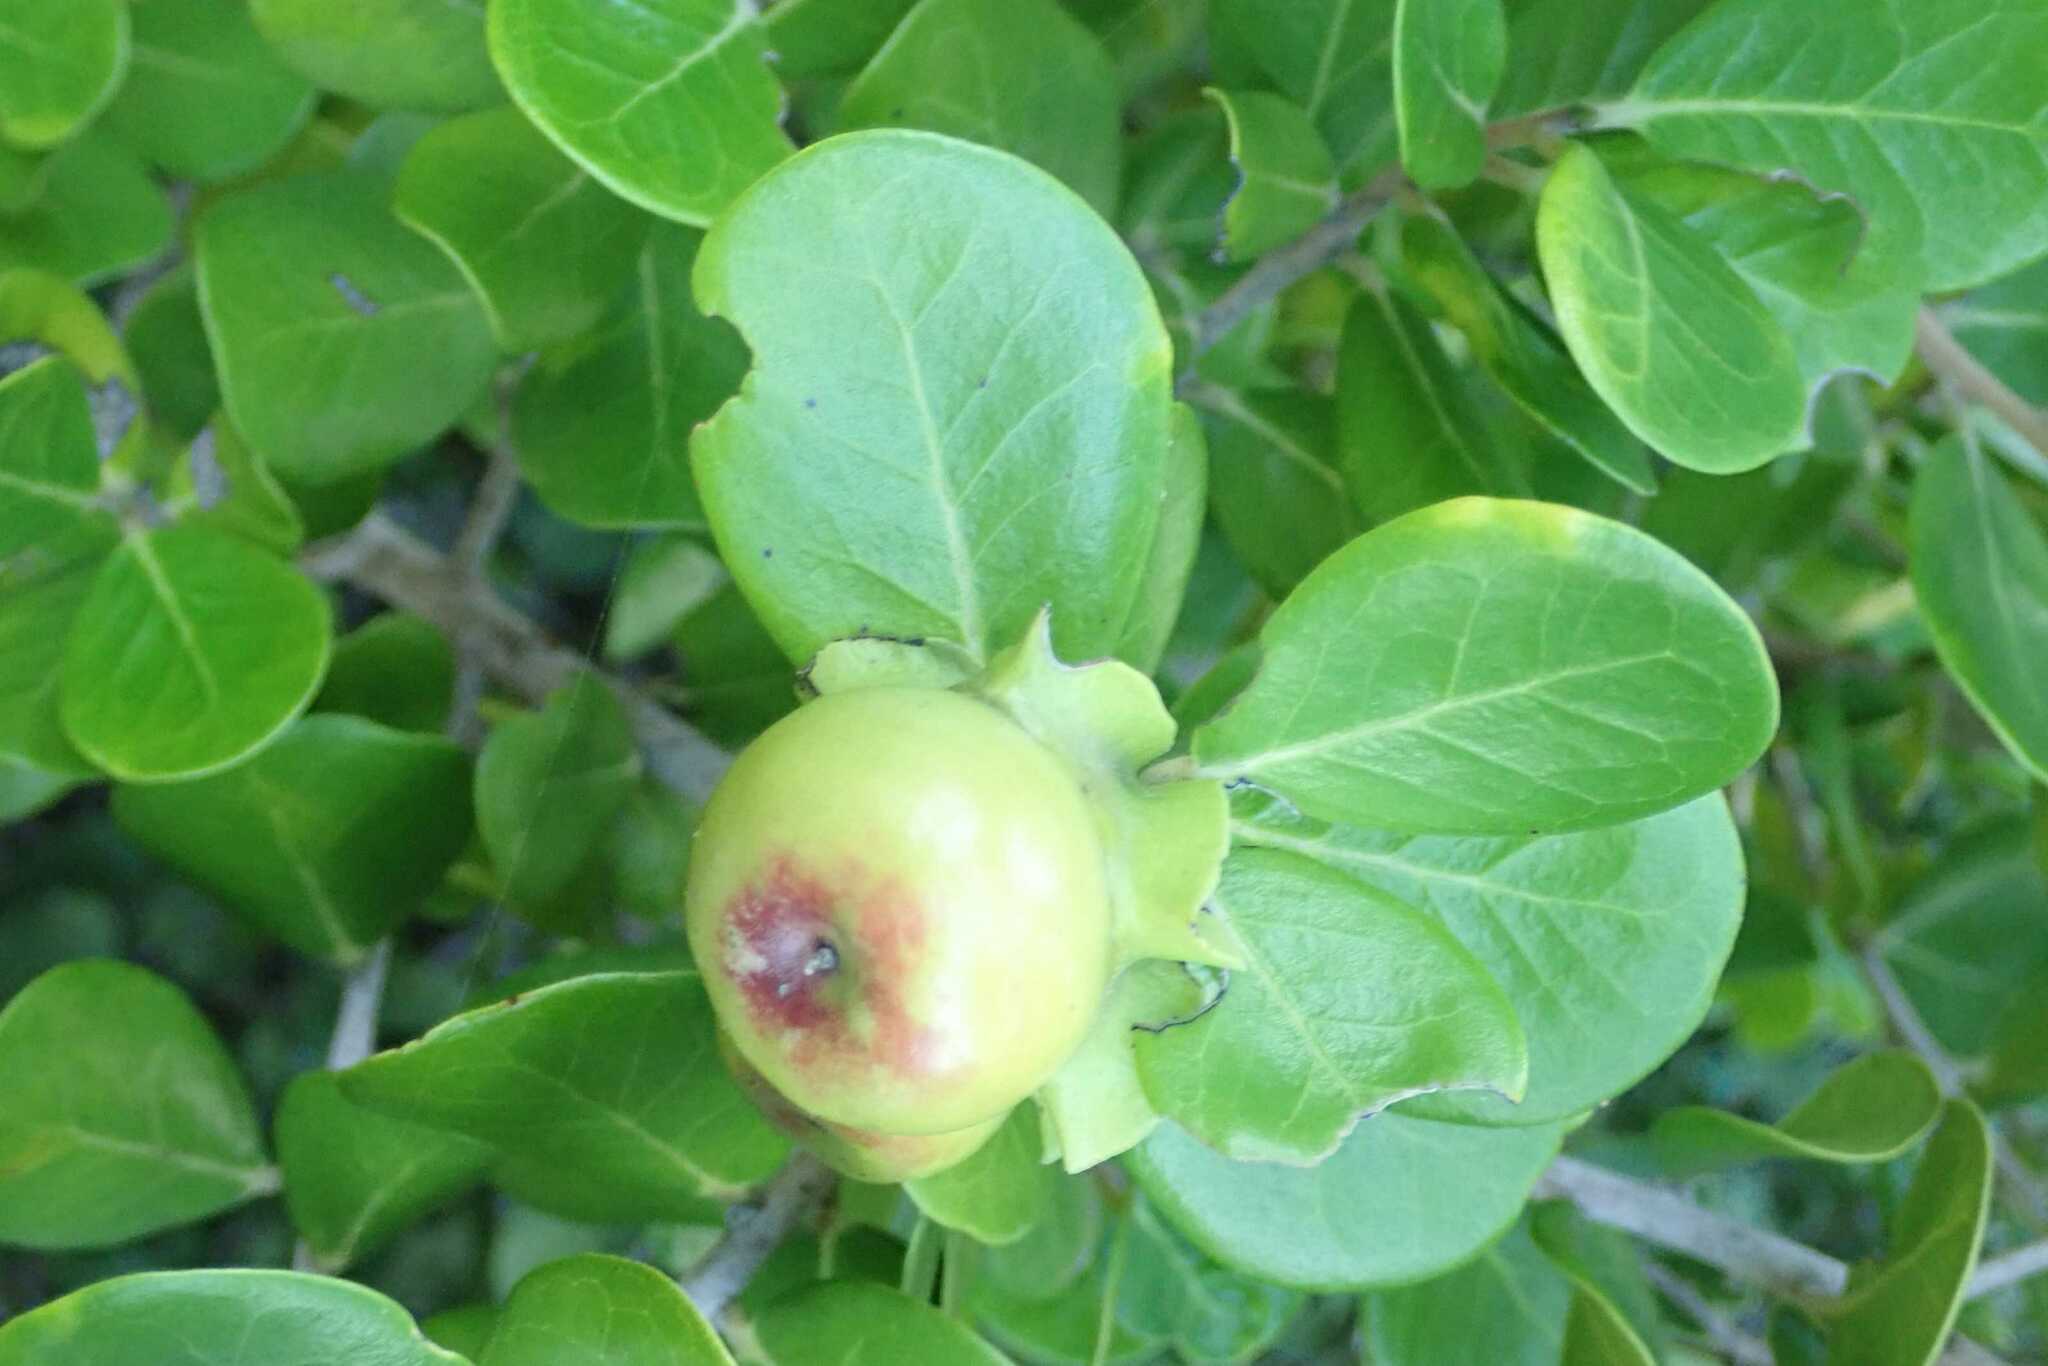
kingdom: Plantae
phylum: Tracheophyta
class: Magnoliopsida
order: Ericales
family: Ebenaceae
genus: Diospyros
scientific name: Diospyros rotundifolia
